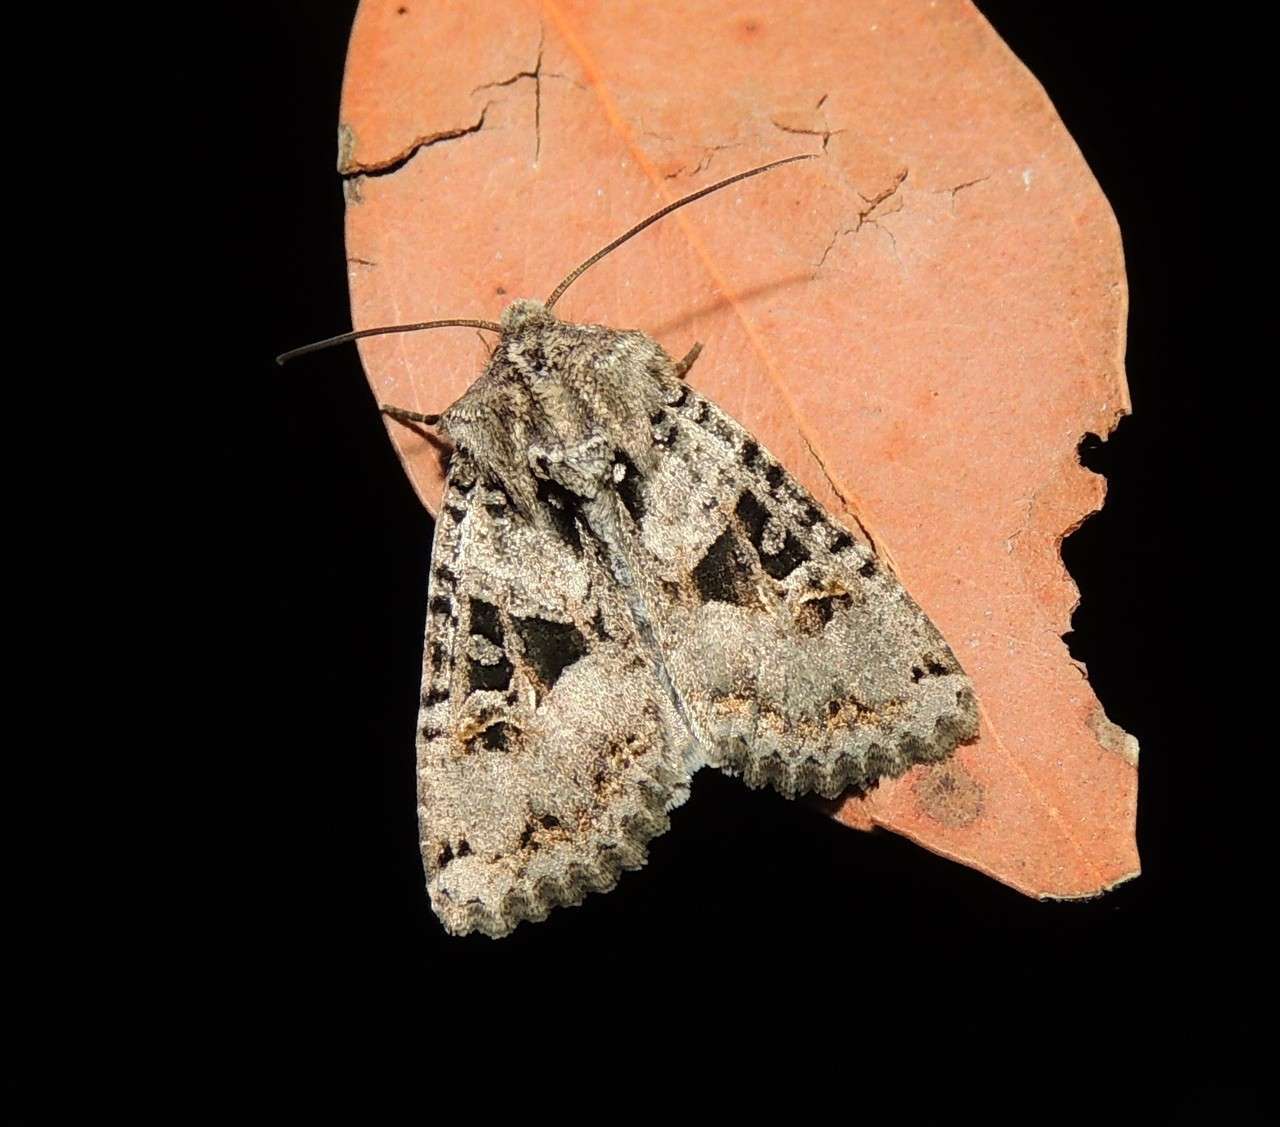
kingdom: Animalia
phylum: Arthropoda
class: Insecta
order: Lepidoptera
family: Noctuidae
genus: Neumichtis
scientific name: Neumichtis mesophaea
